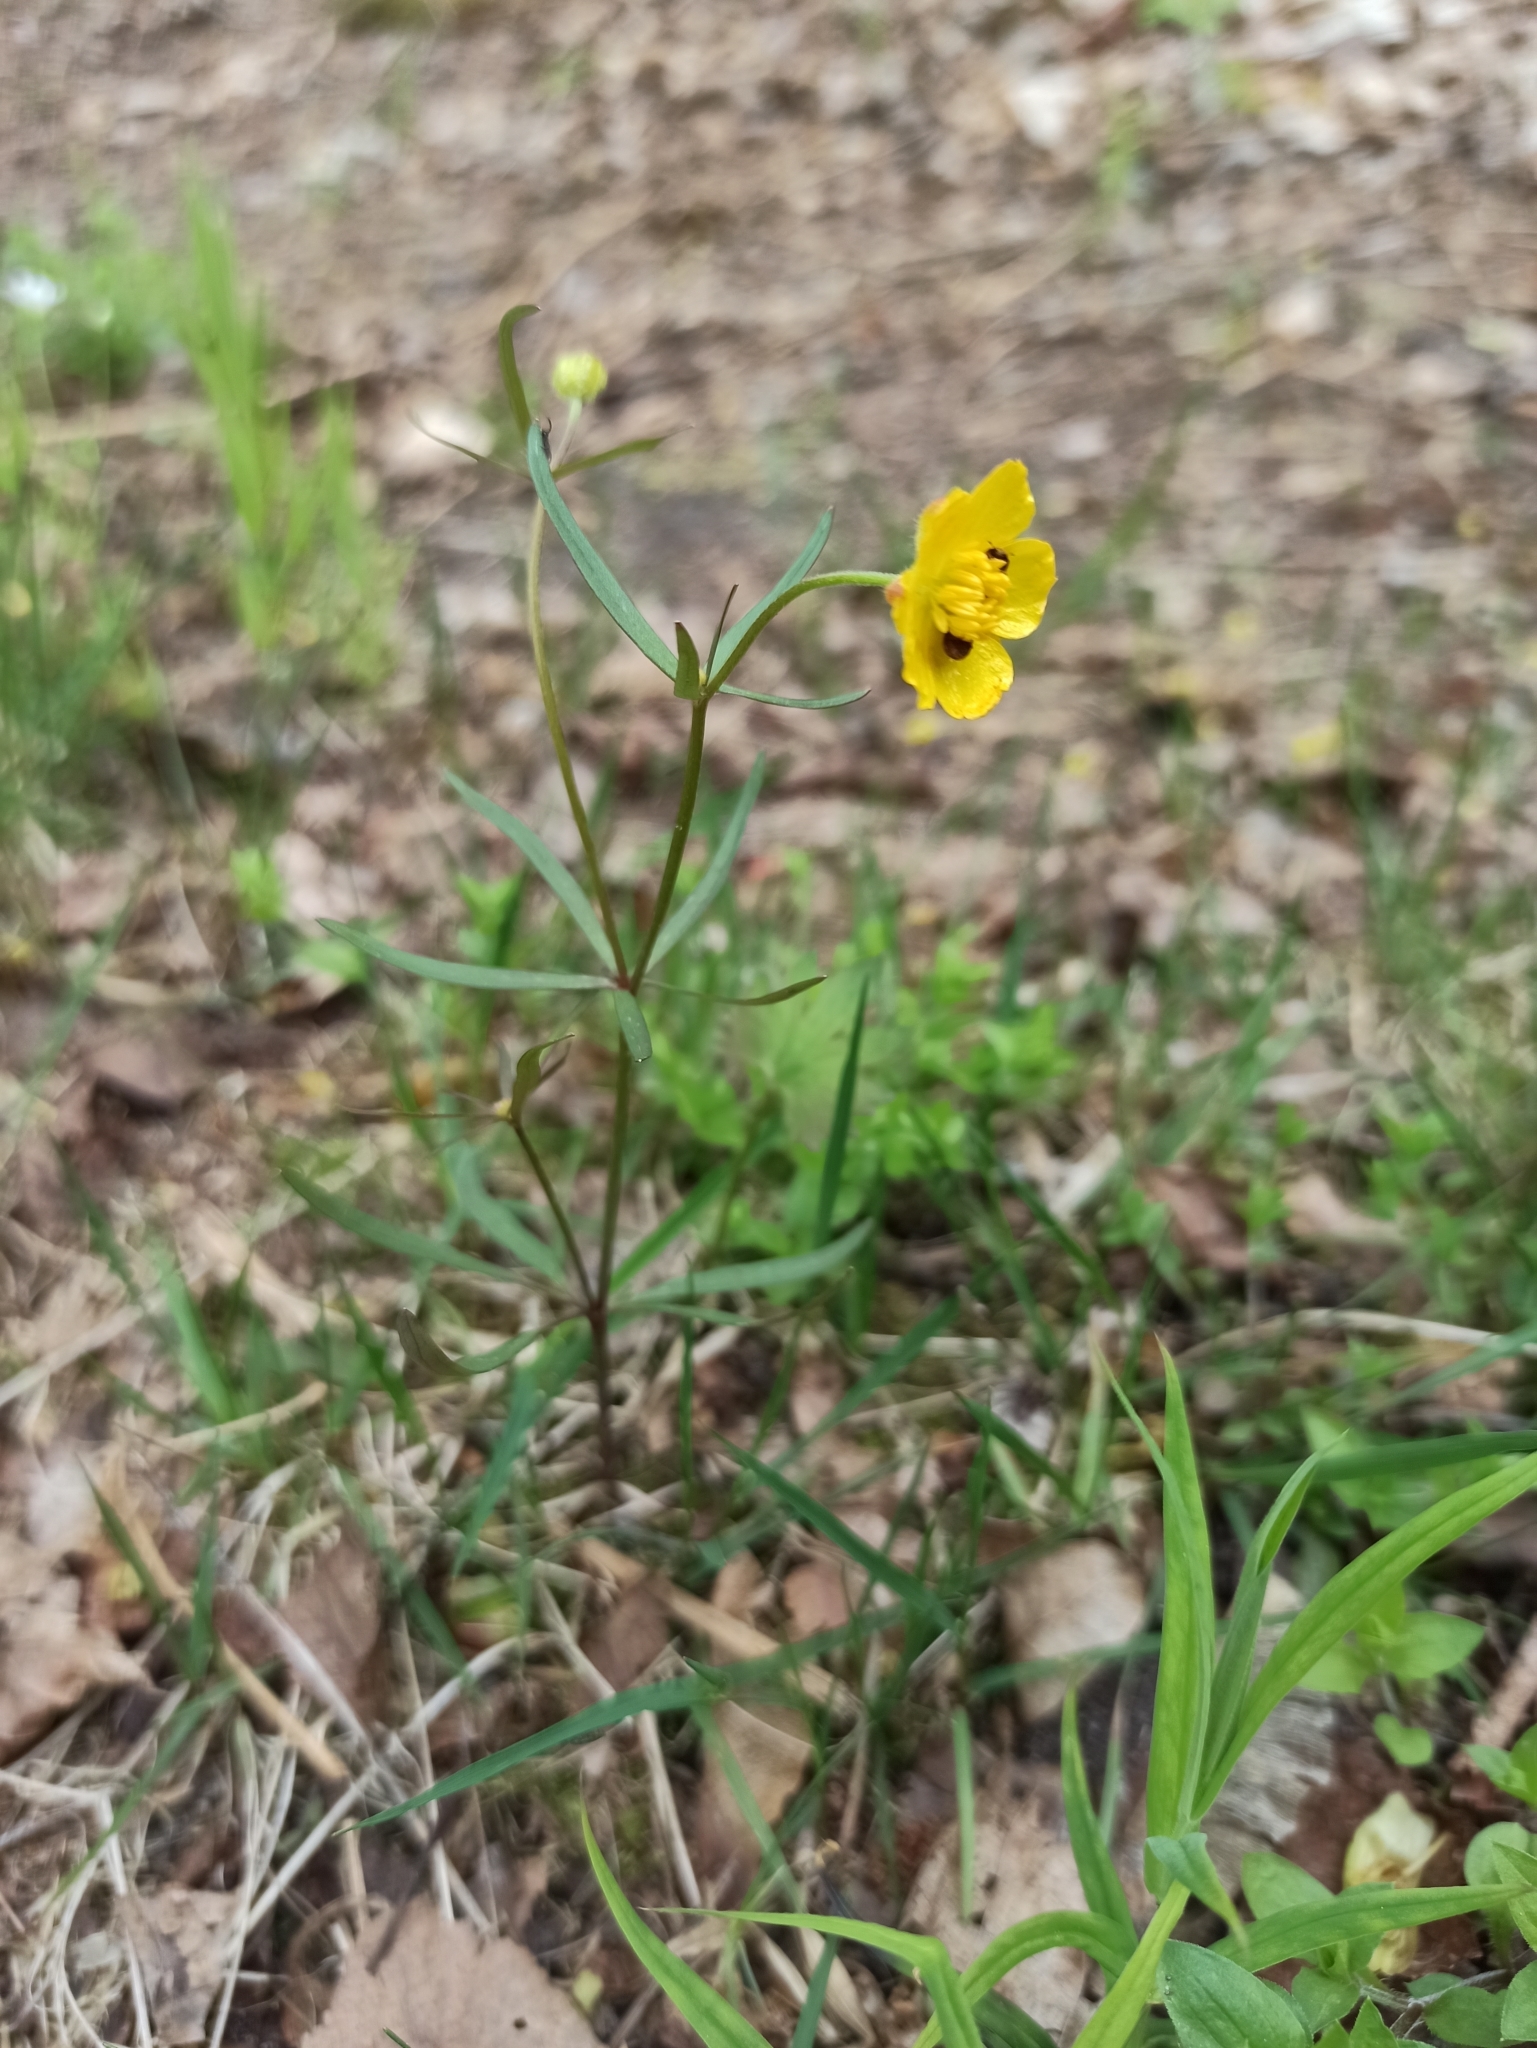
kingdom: Plantae
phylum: Tracheophyta
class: Magnoliopsida
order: Ranunculales
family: Ranunculaceae
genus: Ranunculus
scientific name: Ranunculus auricomus
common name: Goldilocks buttercup
